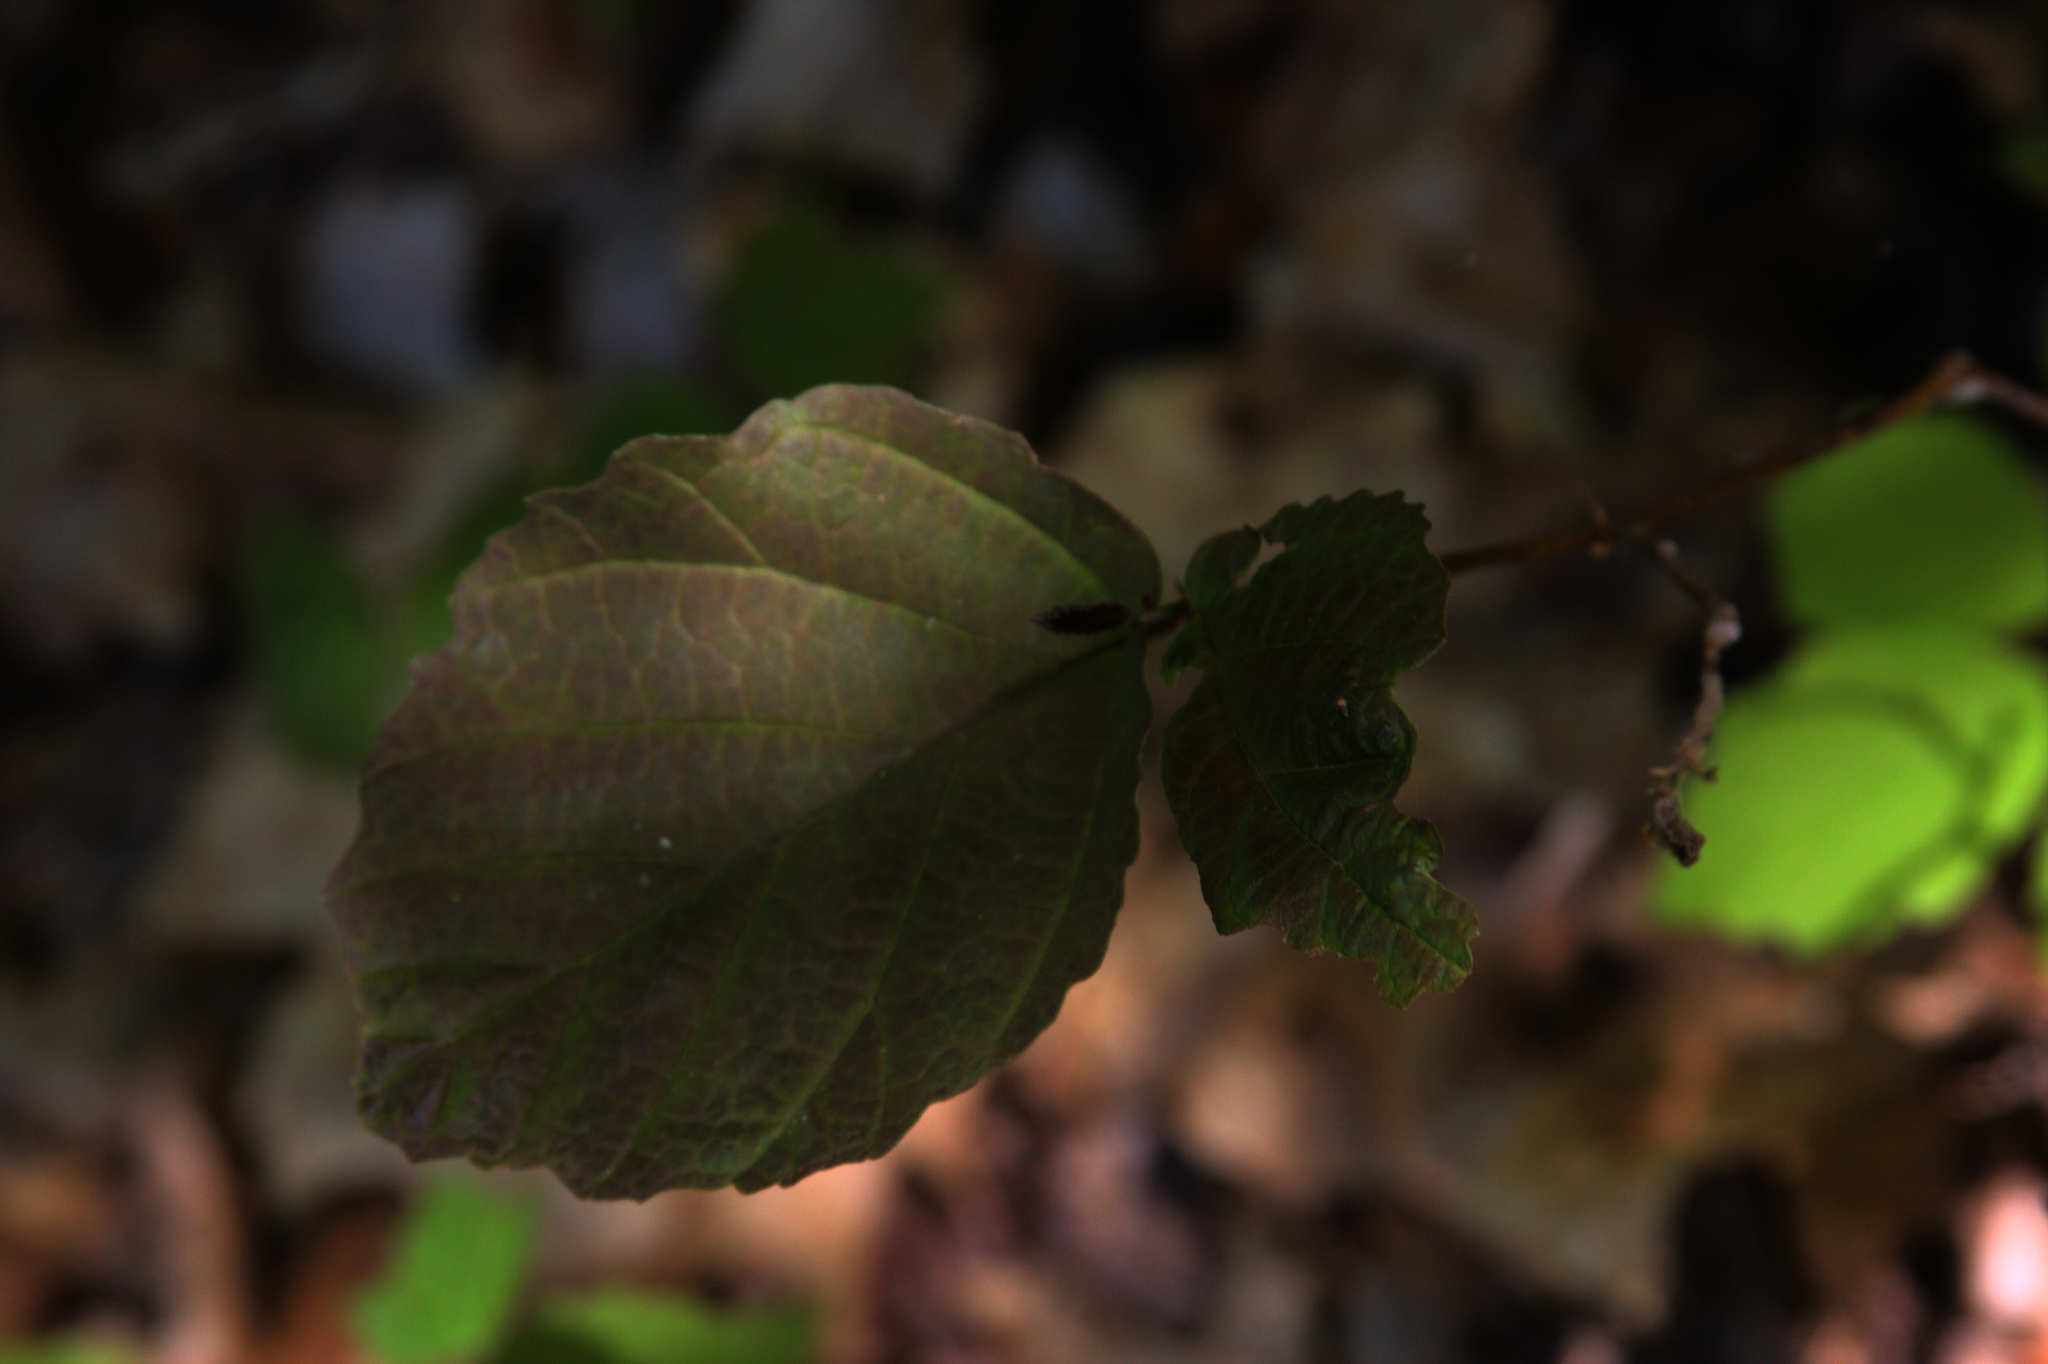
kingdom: Plantae
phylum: Tracheophyta
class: Magnoliopsida
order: Saxifragales
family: Hamamelidaceae
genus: Hamamelis
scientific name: Hamamelis virginiana
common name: Witch-hazel
